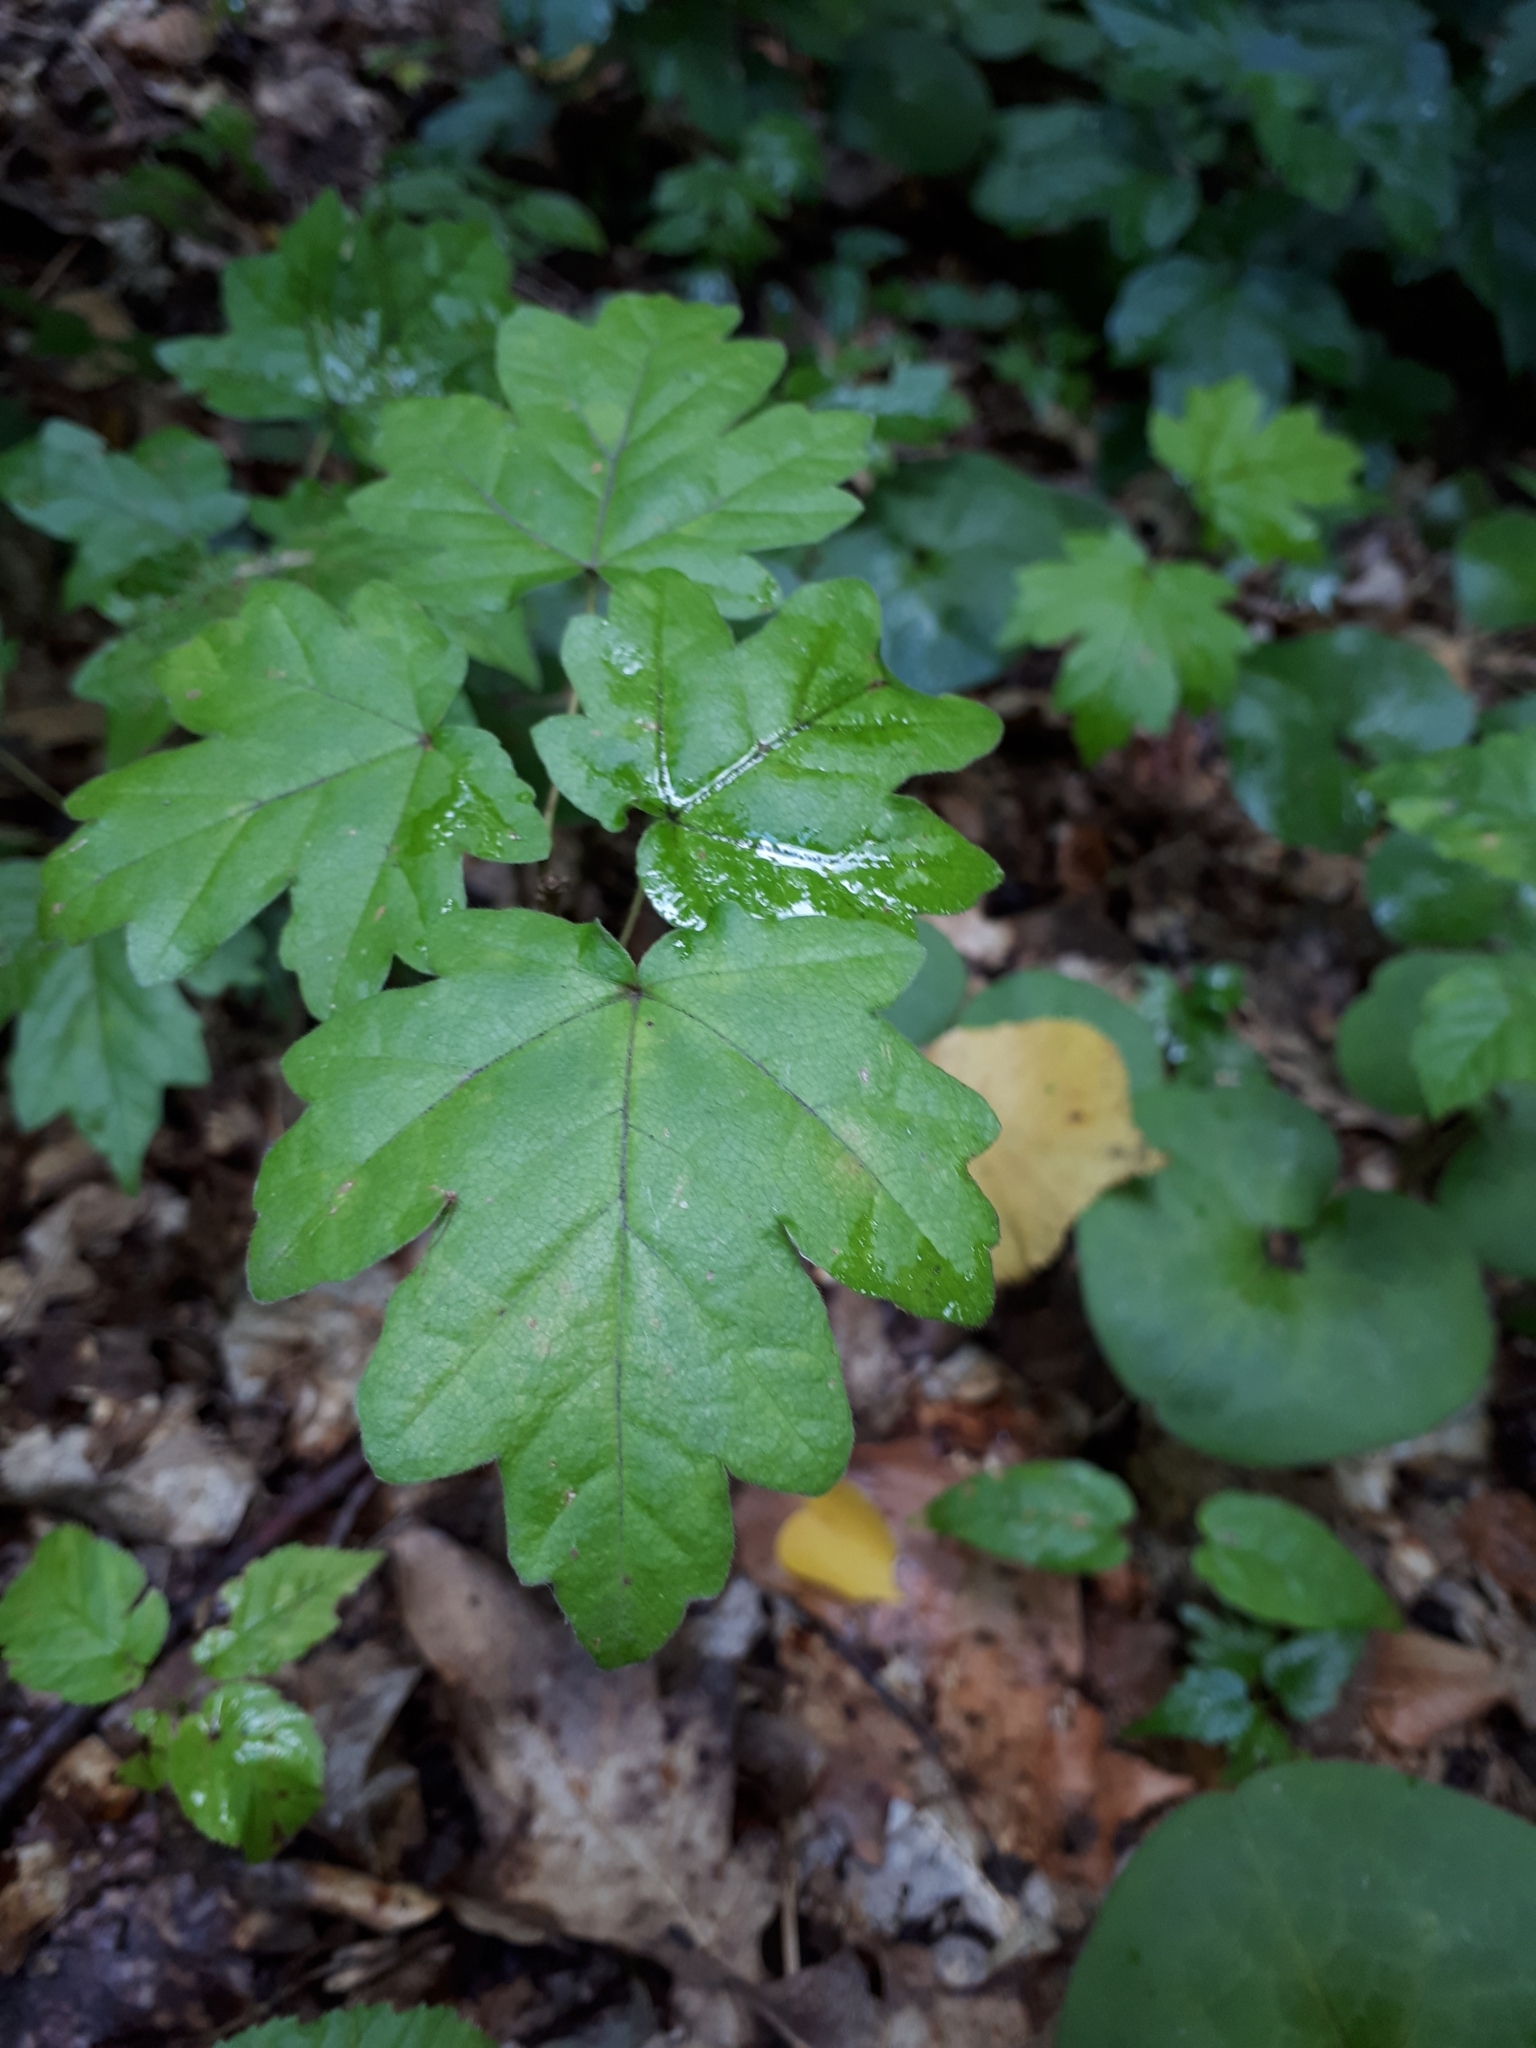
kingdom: Plantae
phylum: Tracheophyta
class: Magnoliopsida
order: Sapindales
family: Sapindaceae
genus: Acer
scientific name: Acer campestre
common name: Field maple
